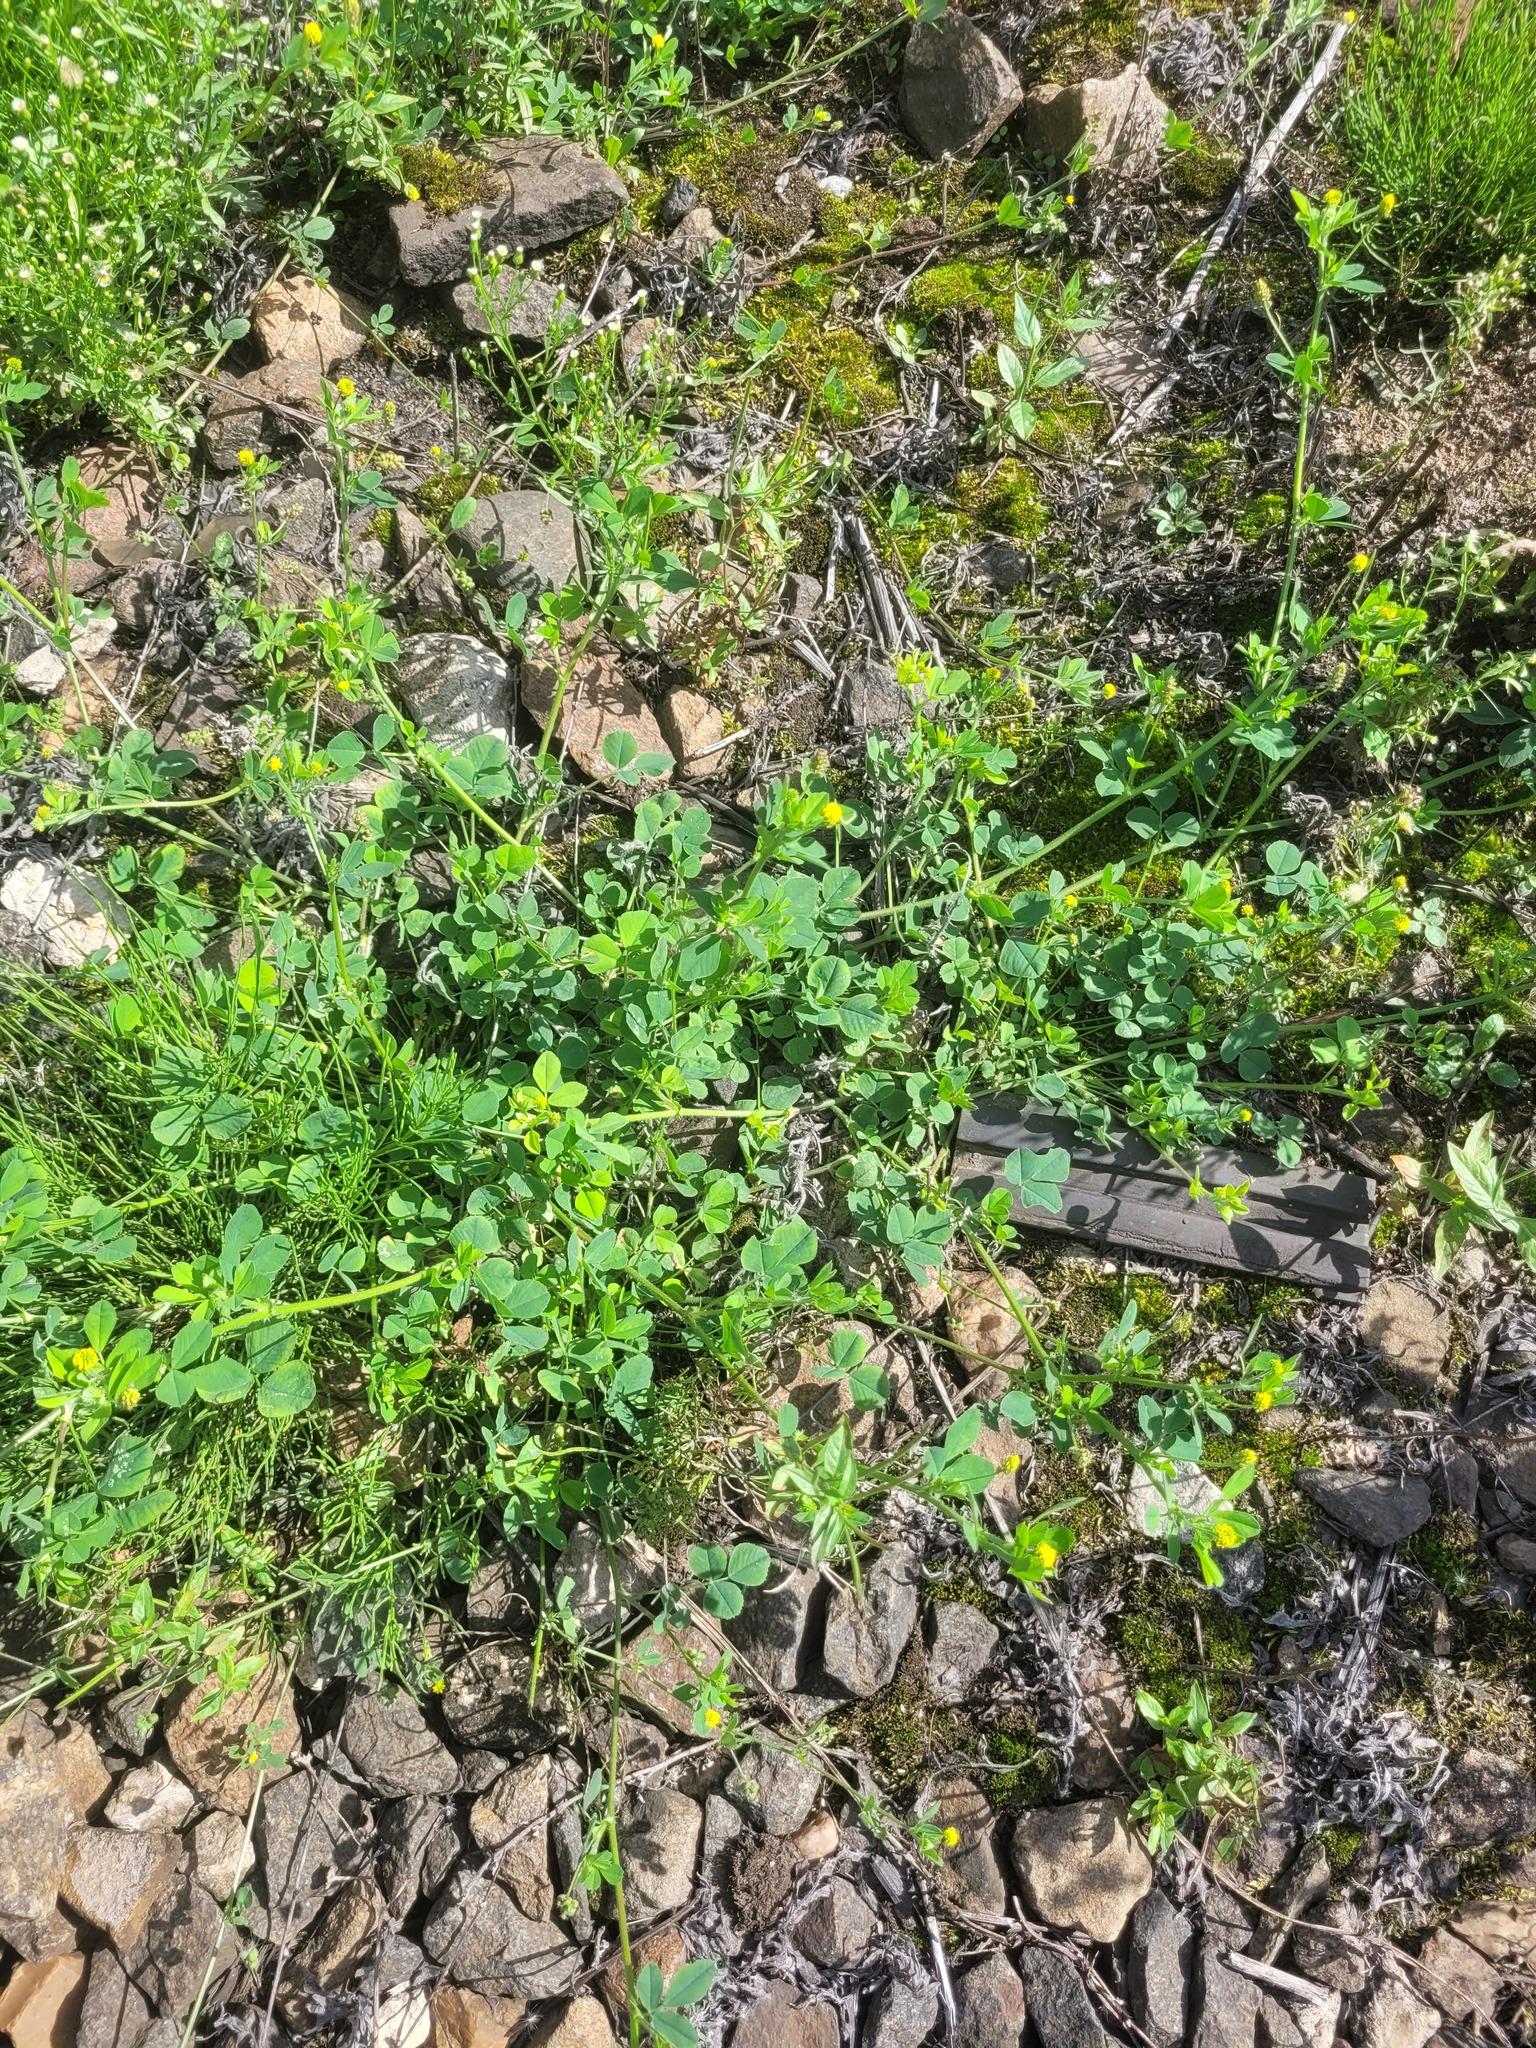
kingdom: Plantae
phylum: Tracheophyta
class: Magnoliopsida
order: Fabales
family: Fabaceae
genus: Medicago
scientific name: Medicago lupulina
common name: Black medick
